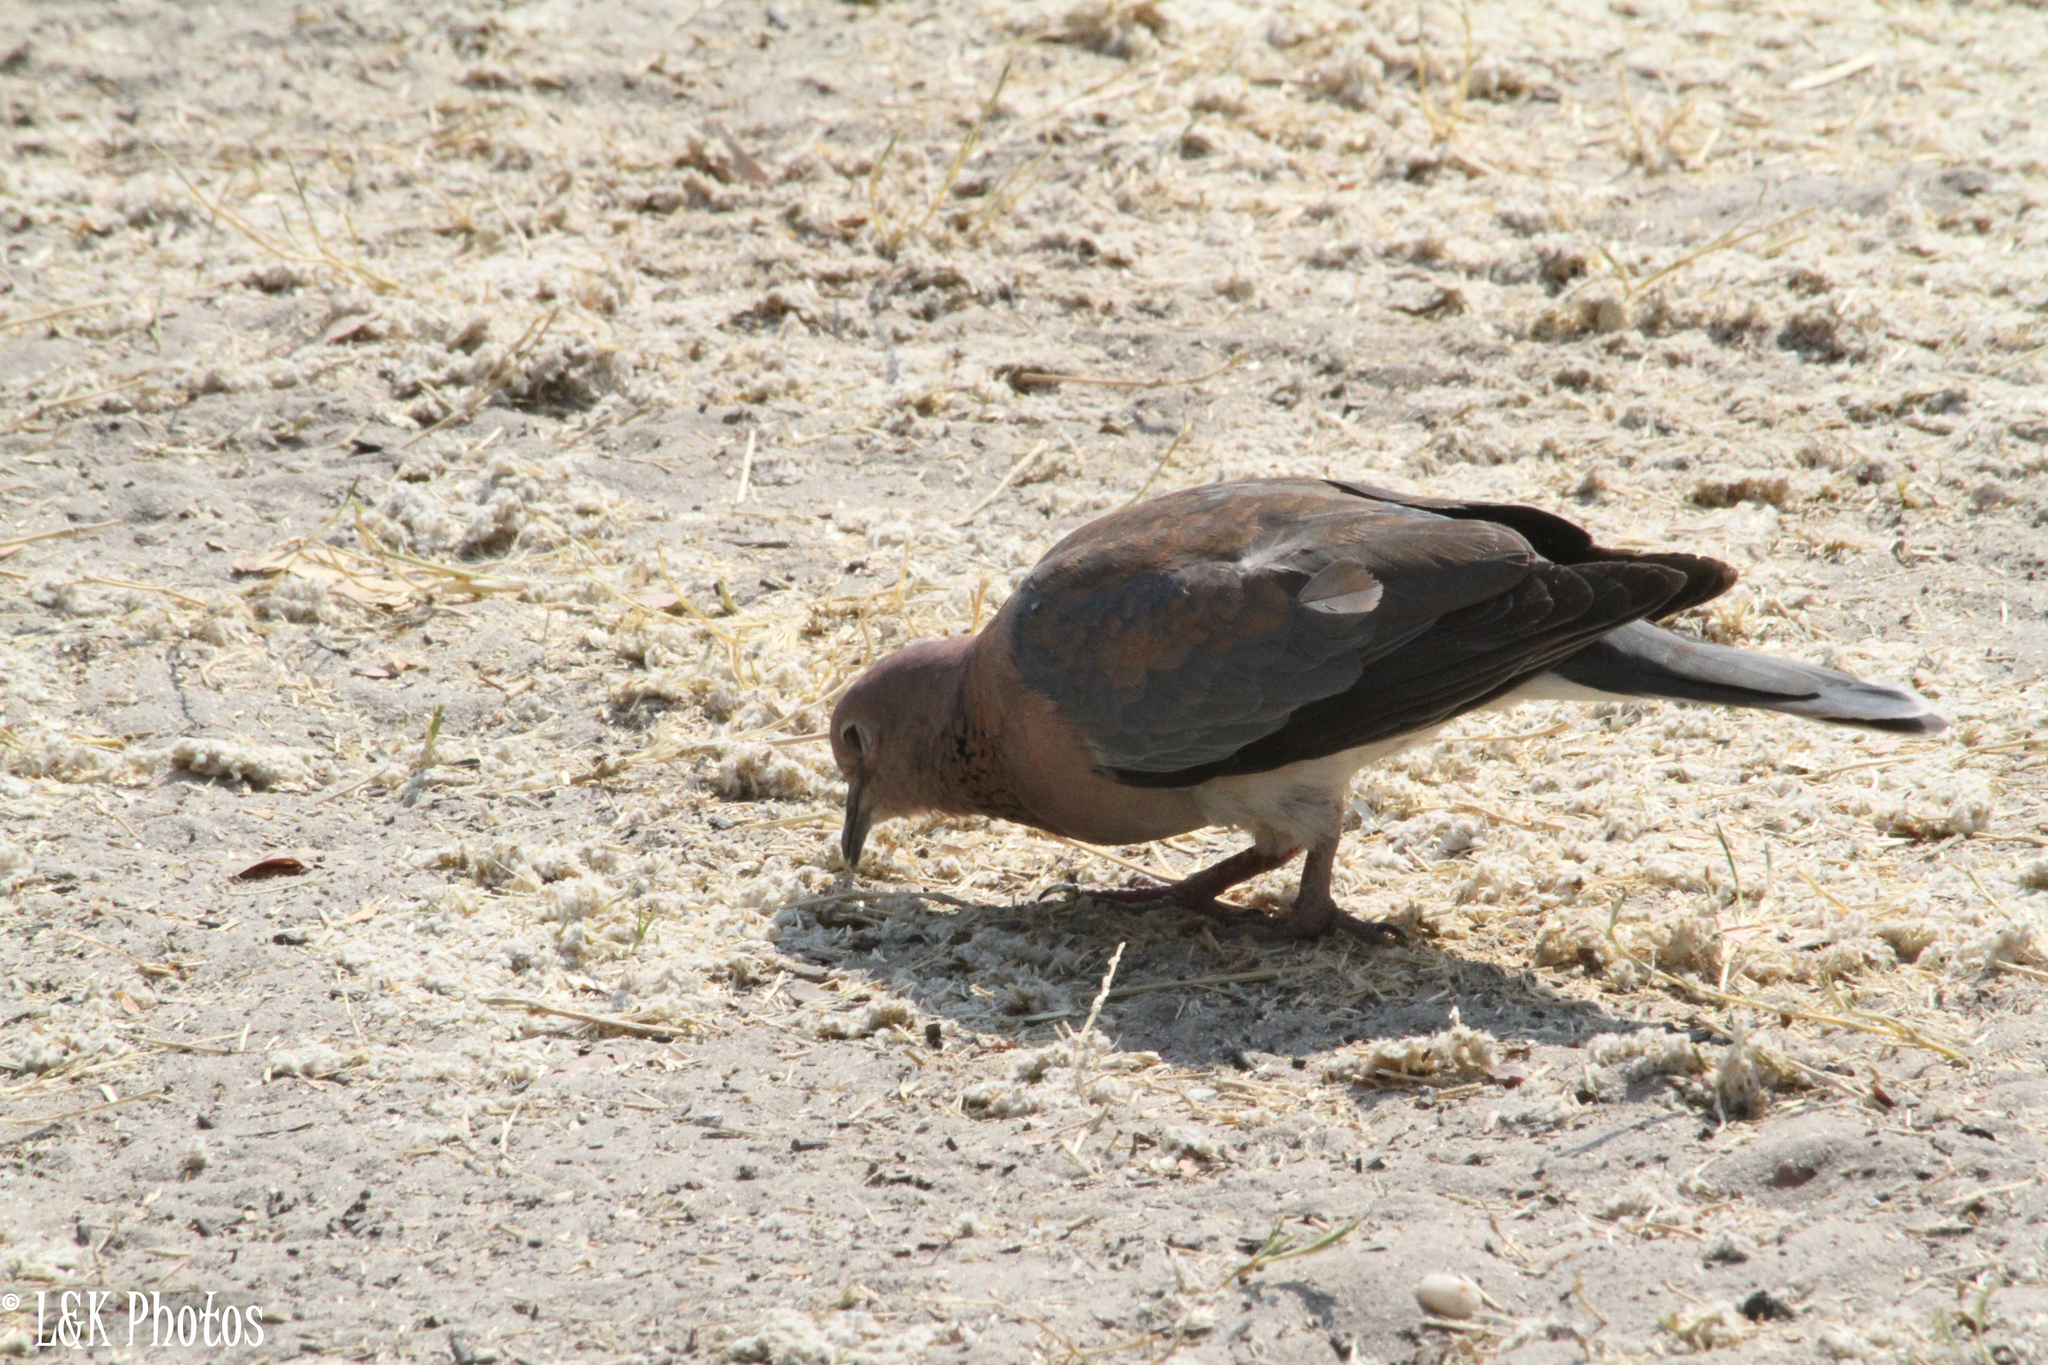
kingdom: Animalia
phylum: Chordata
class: Aves
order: Columbiformes
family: Columbidae
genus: Spilopelia
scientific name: Spilopelia senegalensis
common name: Laughing dove
